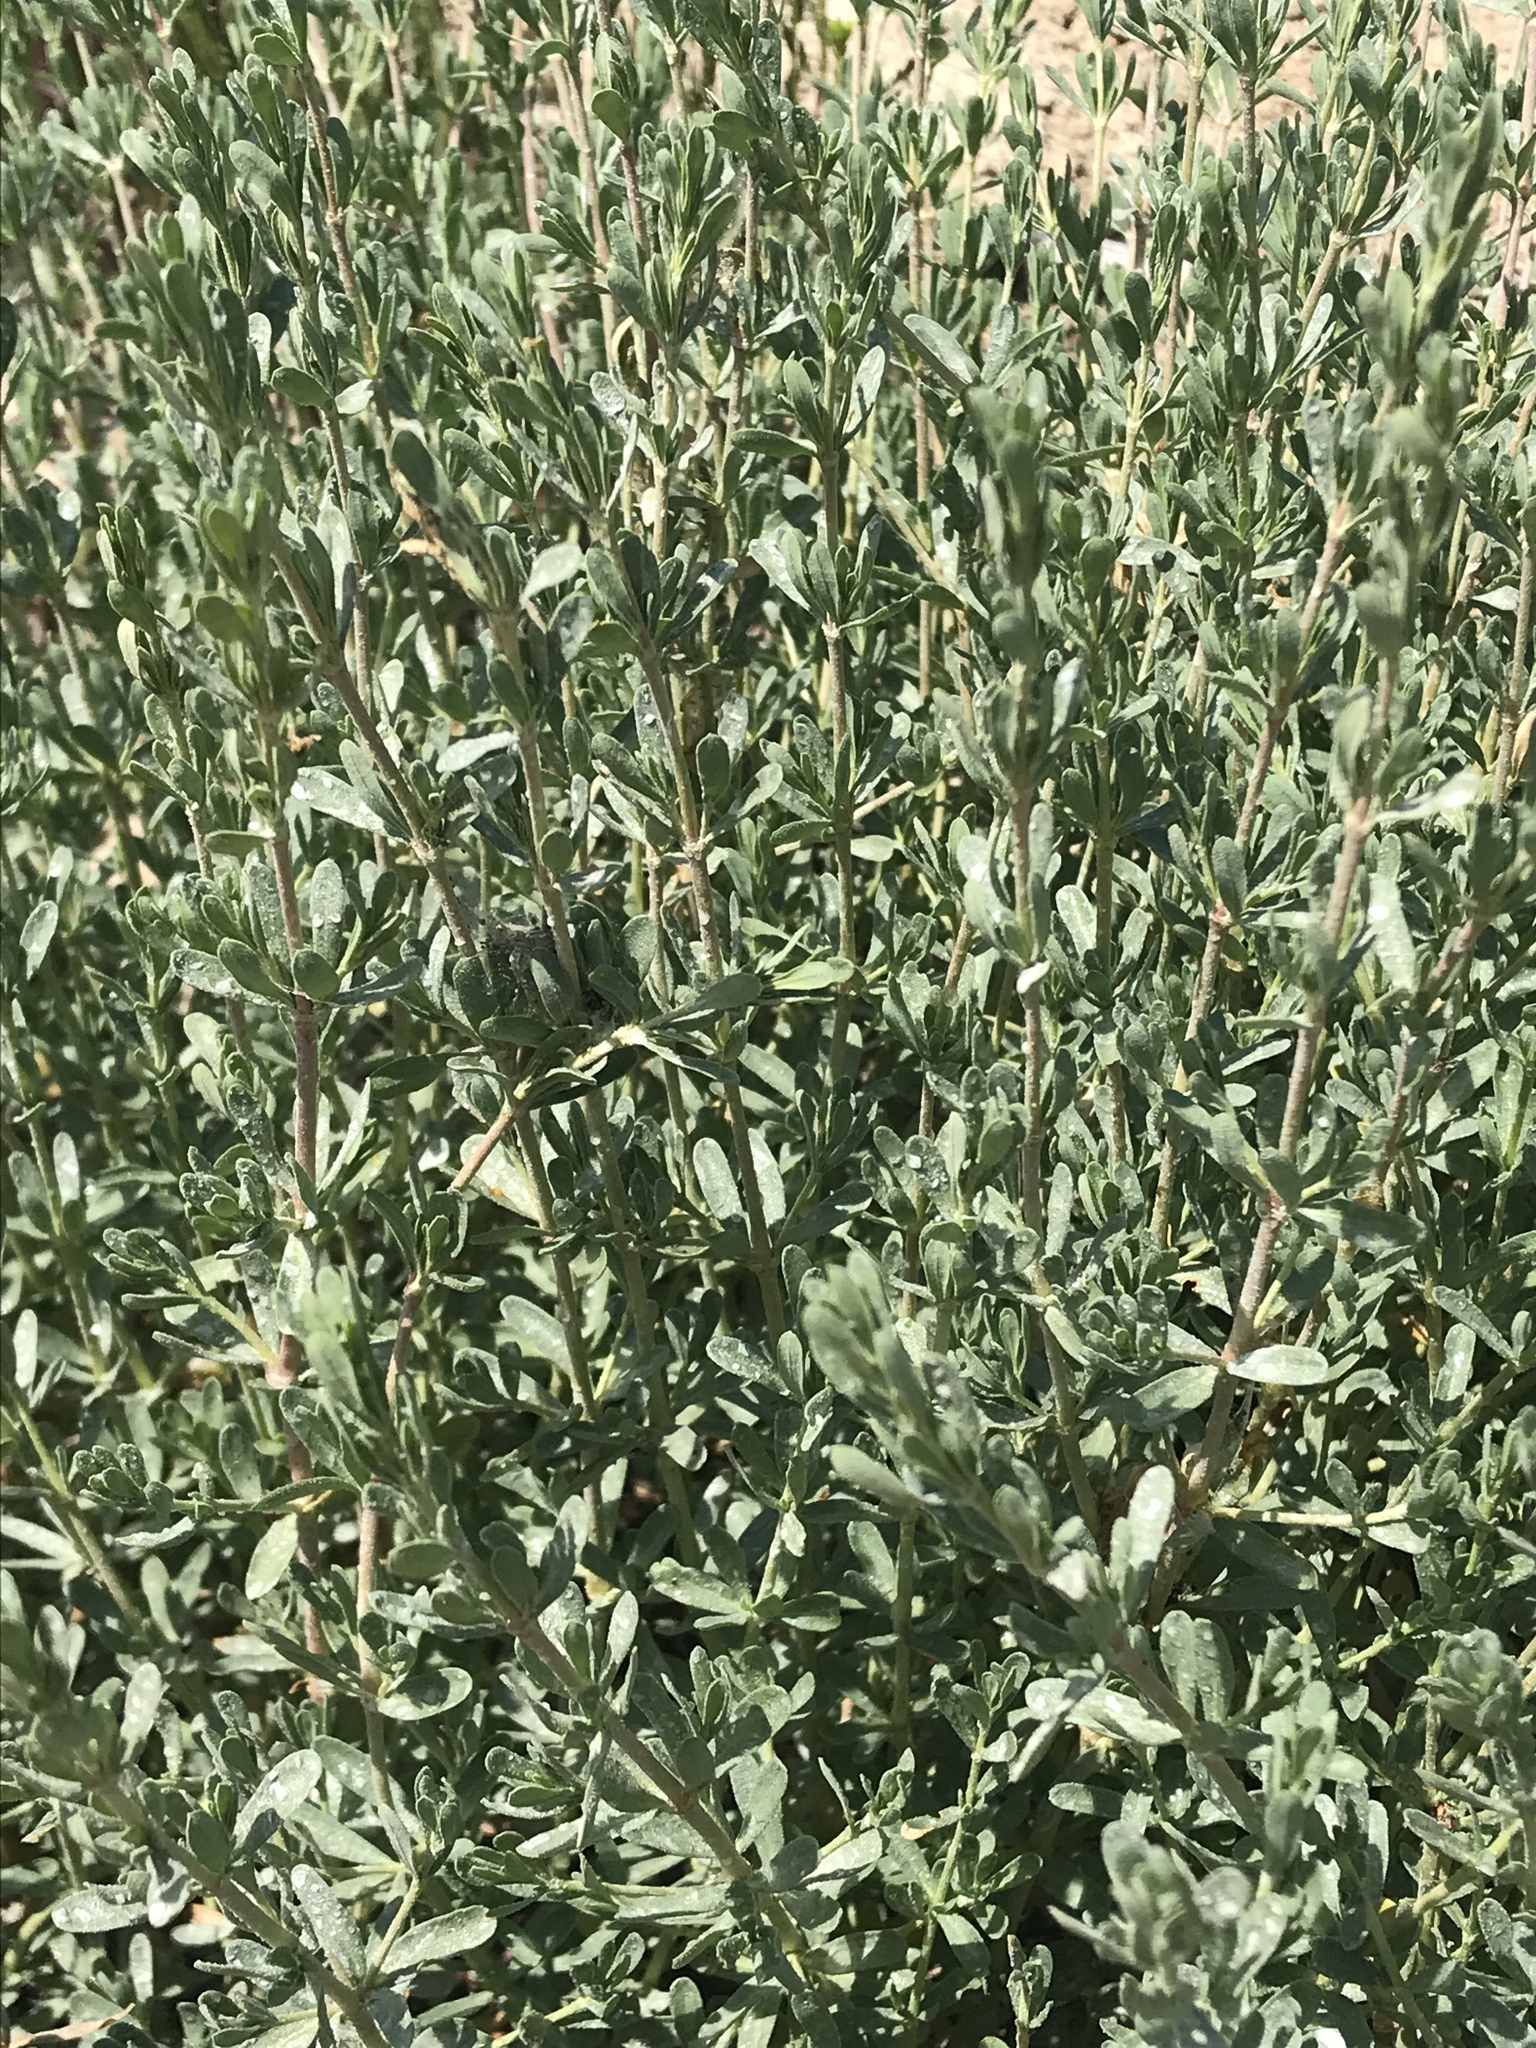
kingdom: Plantae
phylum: Tracheophyta
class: Magnoliopsida
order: Caryophyllales
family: Frankeniaceae
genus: Frankenia
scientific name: Frankenia salina
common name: Alkali seaheath
